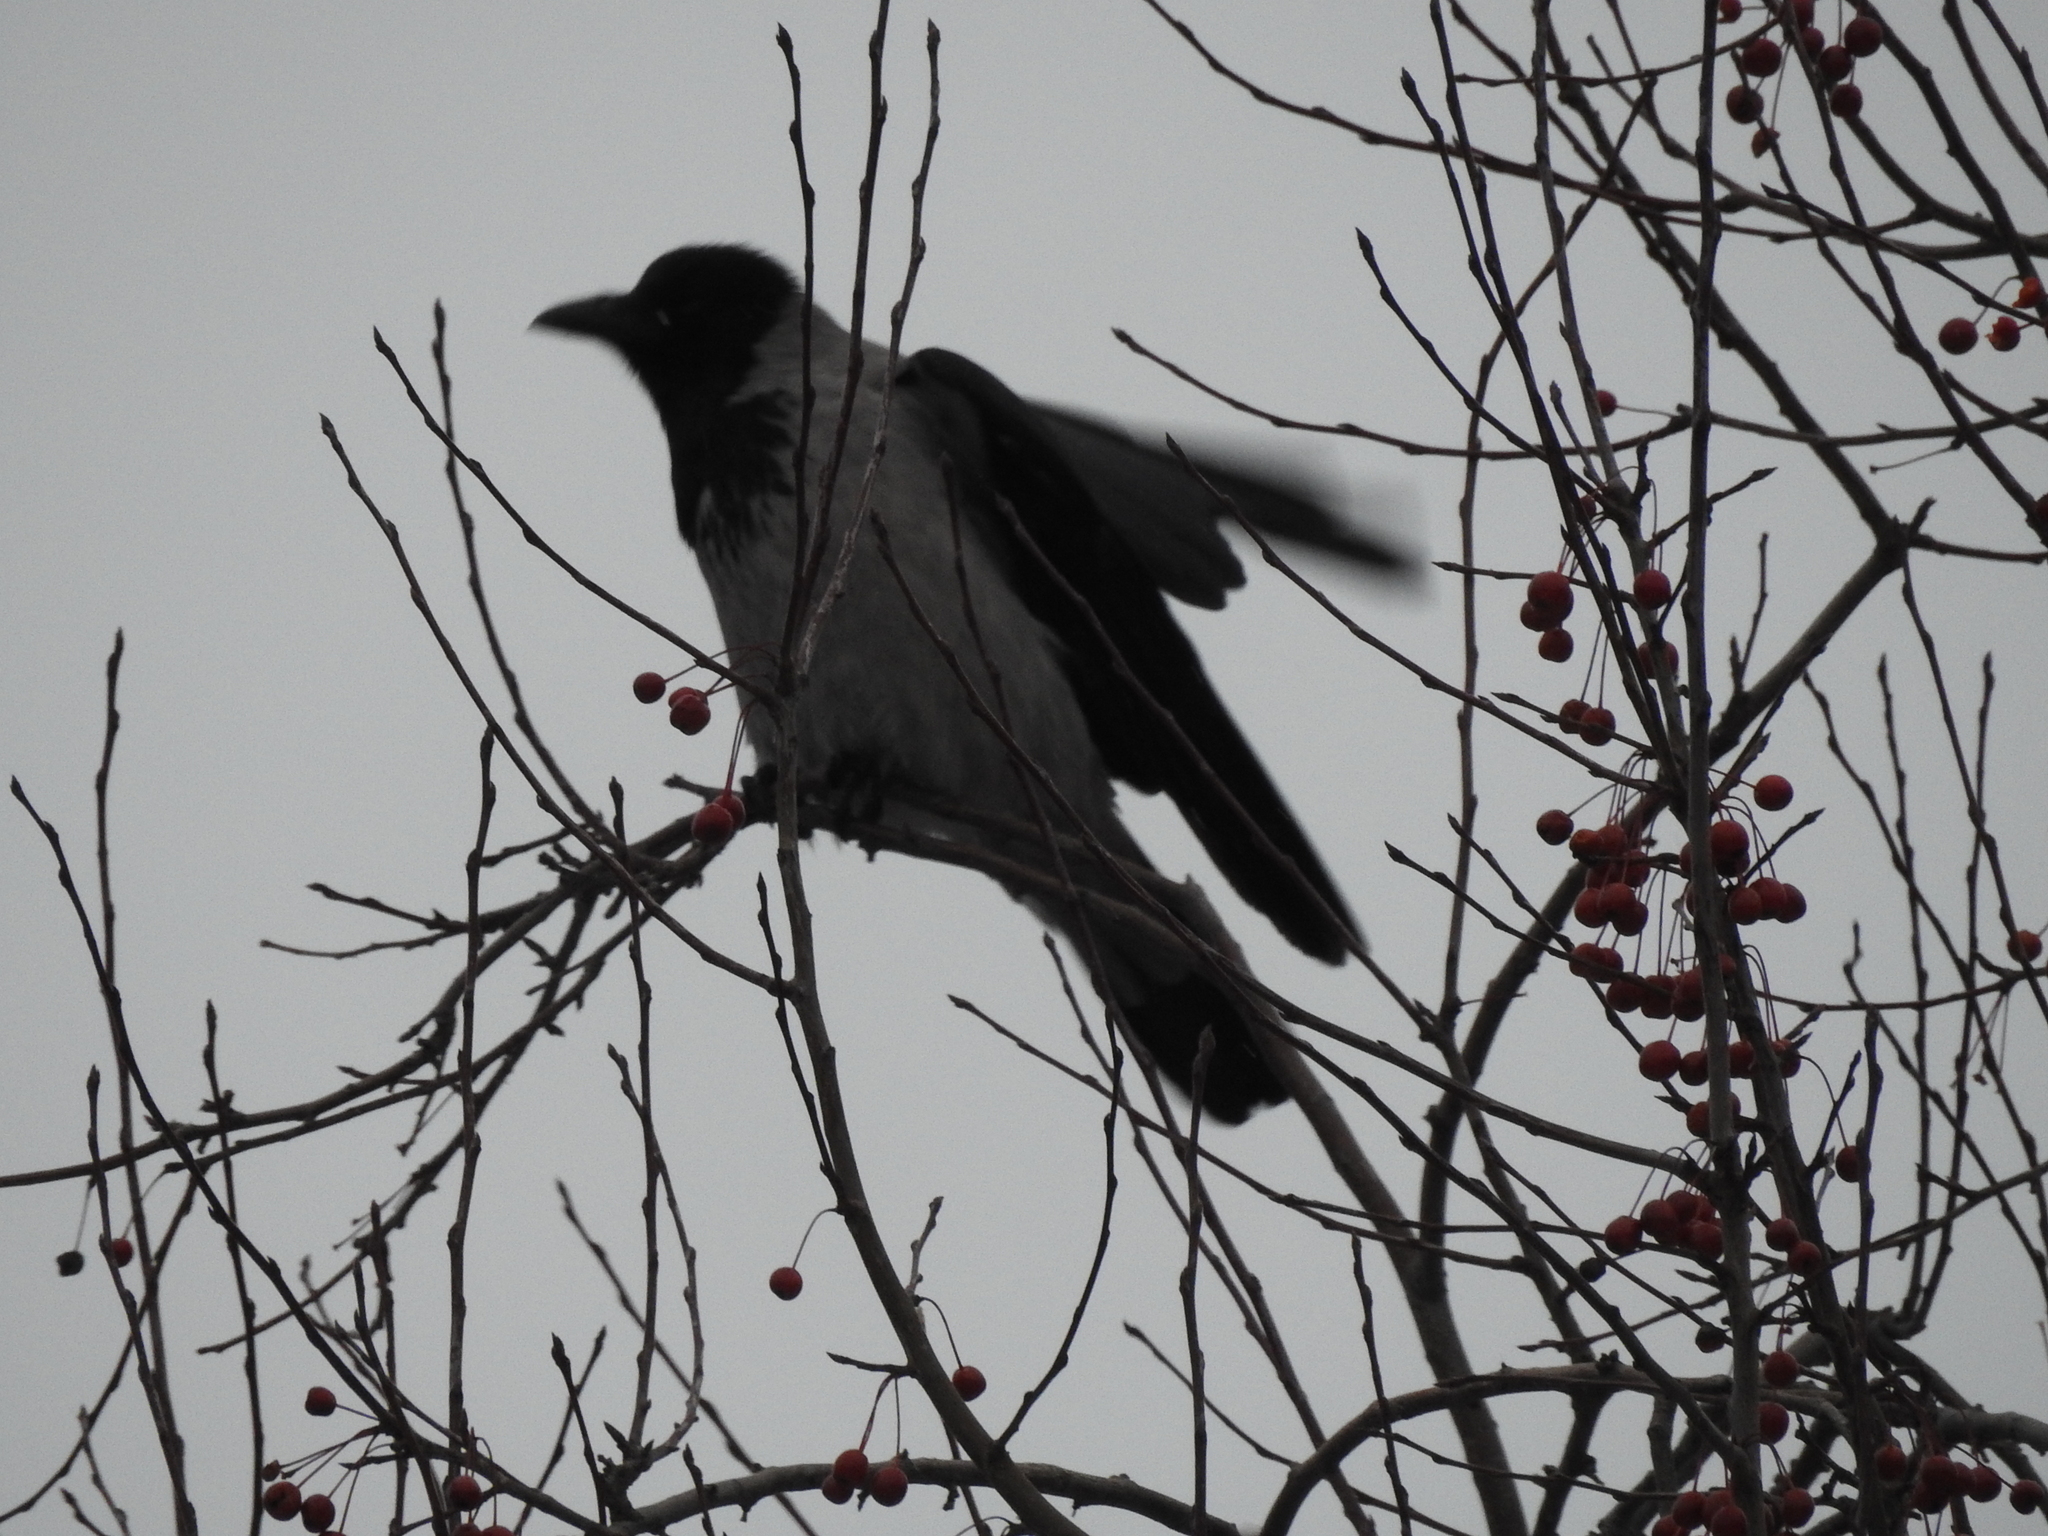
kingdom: Animalia
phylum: Chordata
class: Aves
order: Passeriformes
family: Corvidae
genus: Corvus
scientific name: Corvus cornix
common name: Hooded crow
